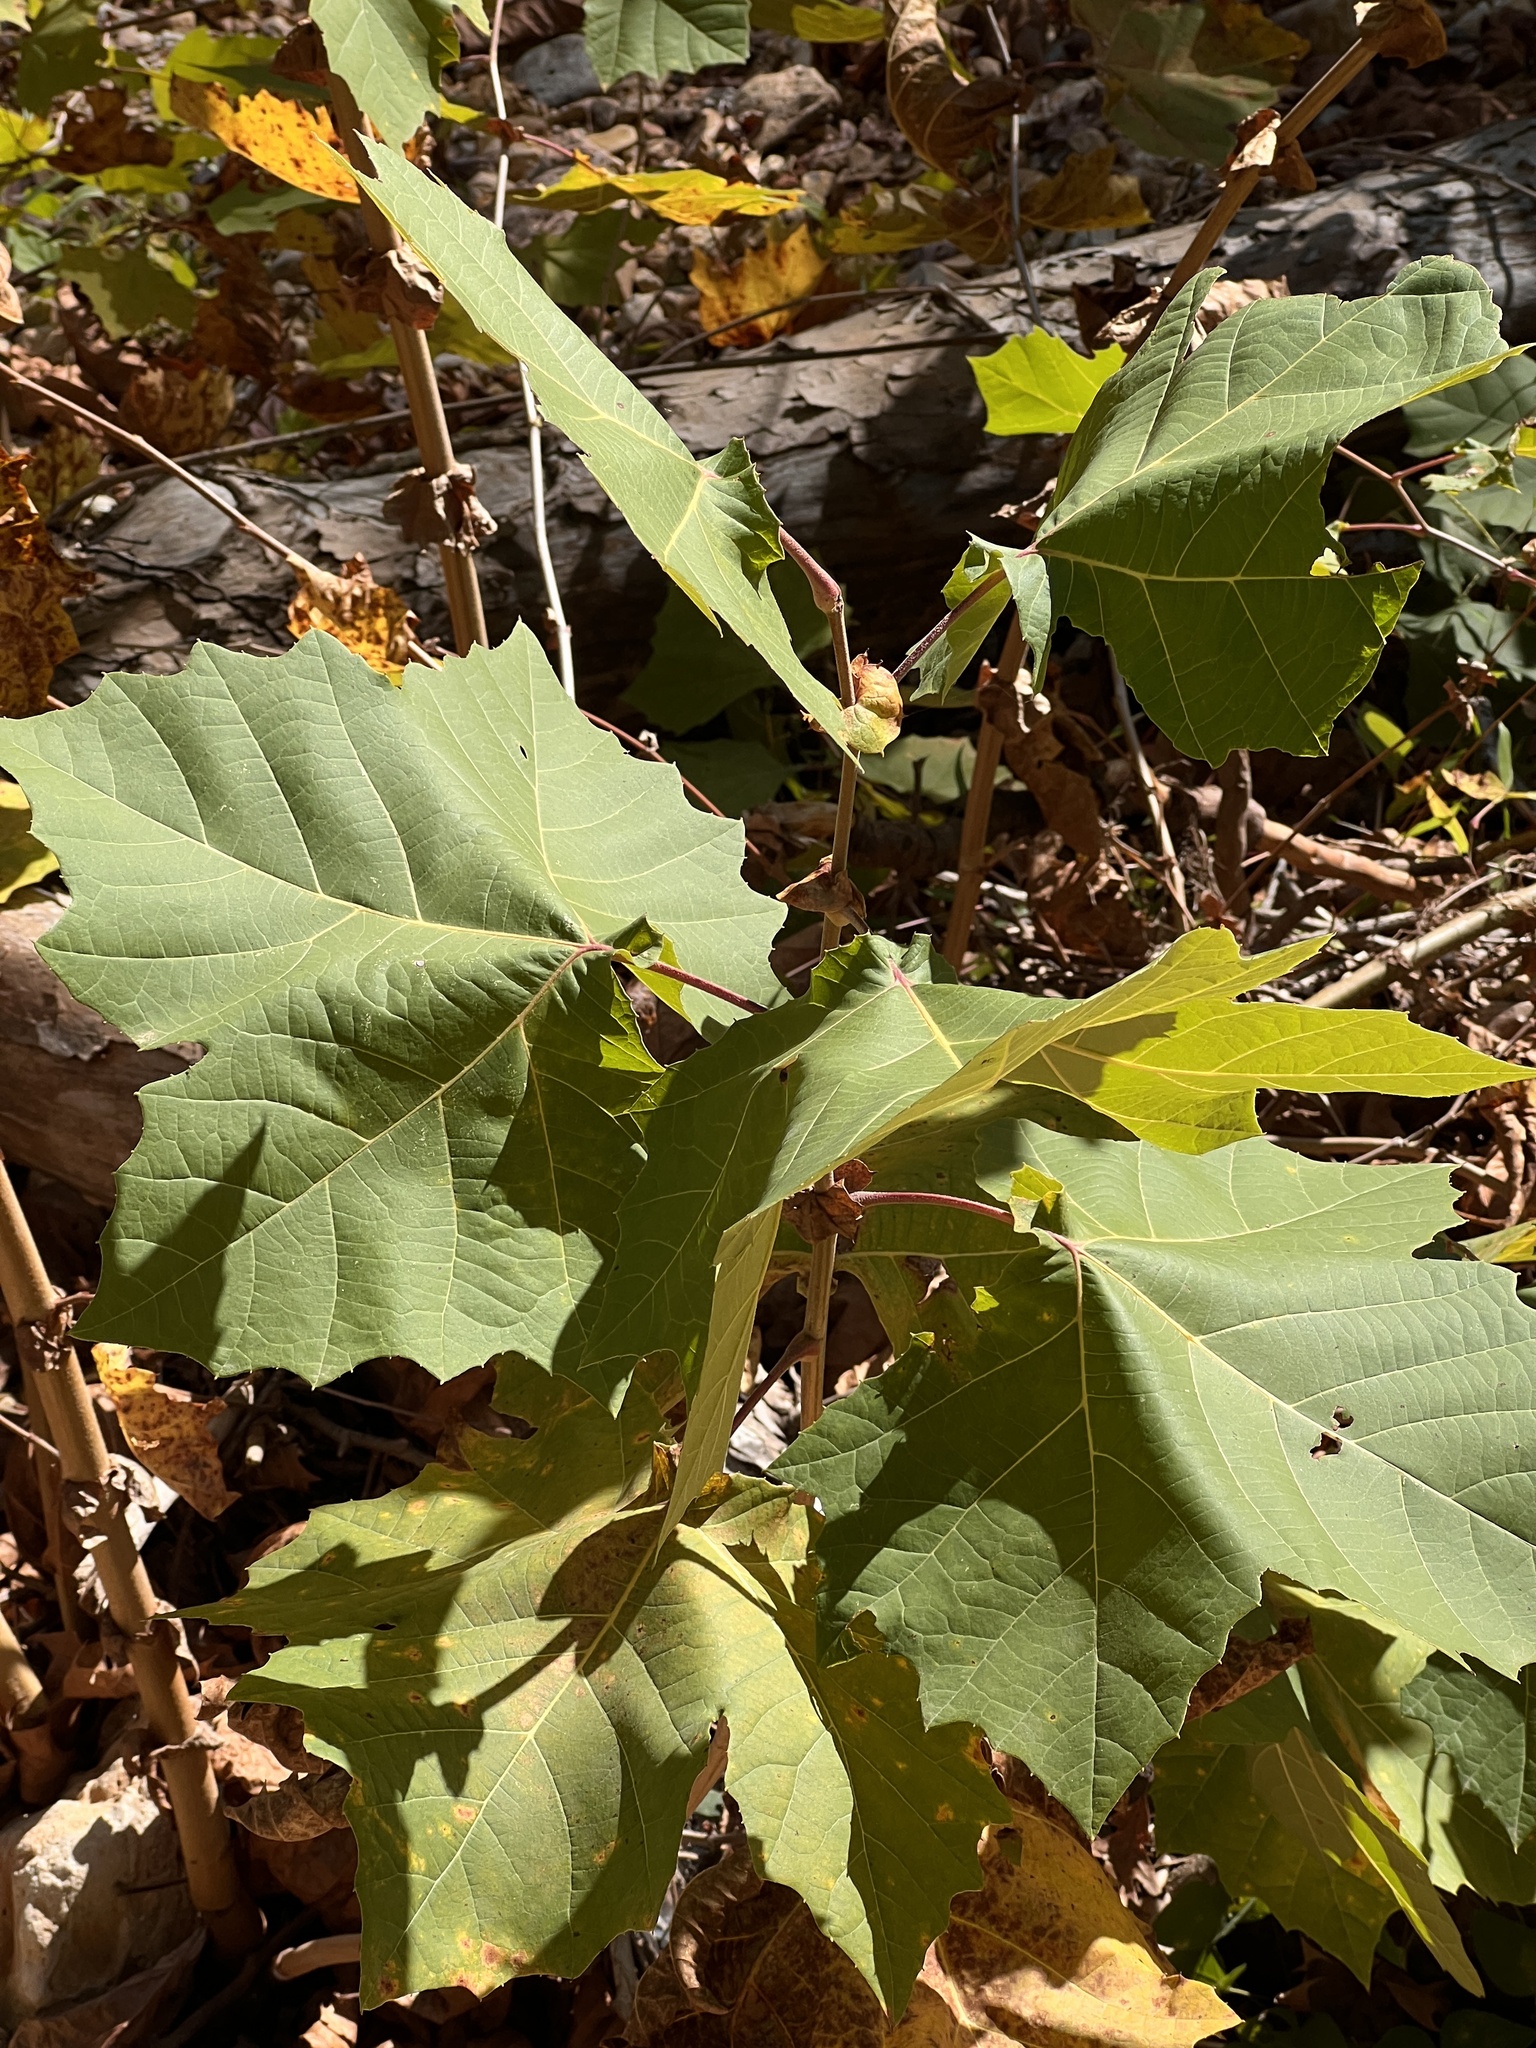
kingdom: Plantae
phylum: Tracheophyta
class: Magnoliopsida
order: Proteales
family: Platanaceae
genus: Platanus
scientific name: Platanus occidentalis
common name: American sycamore
